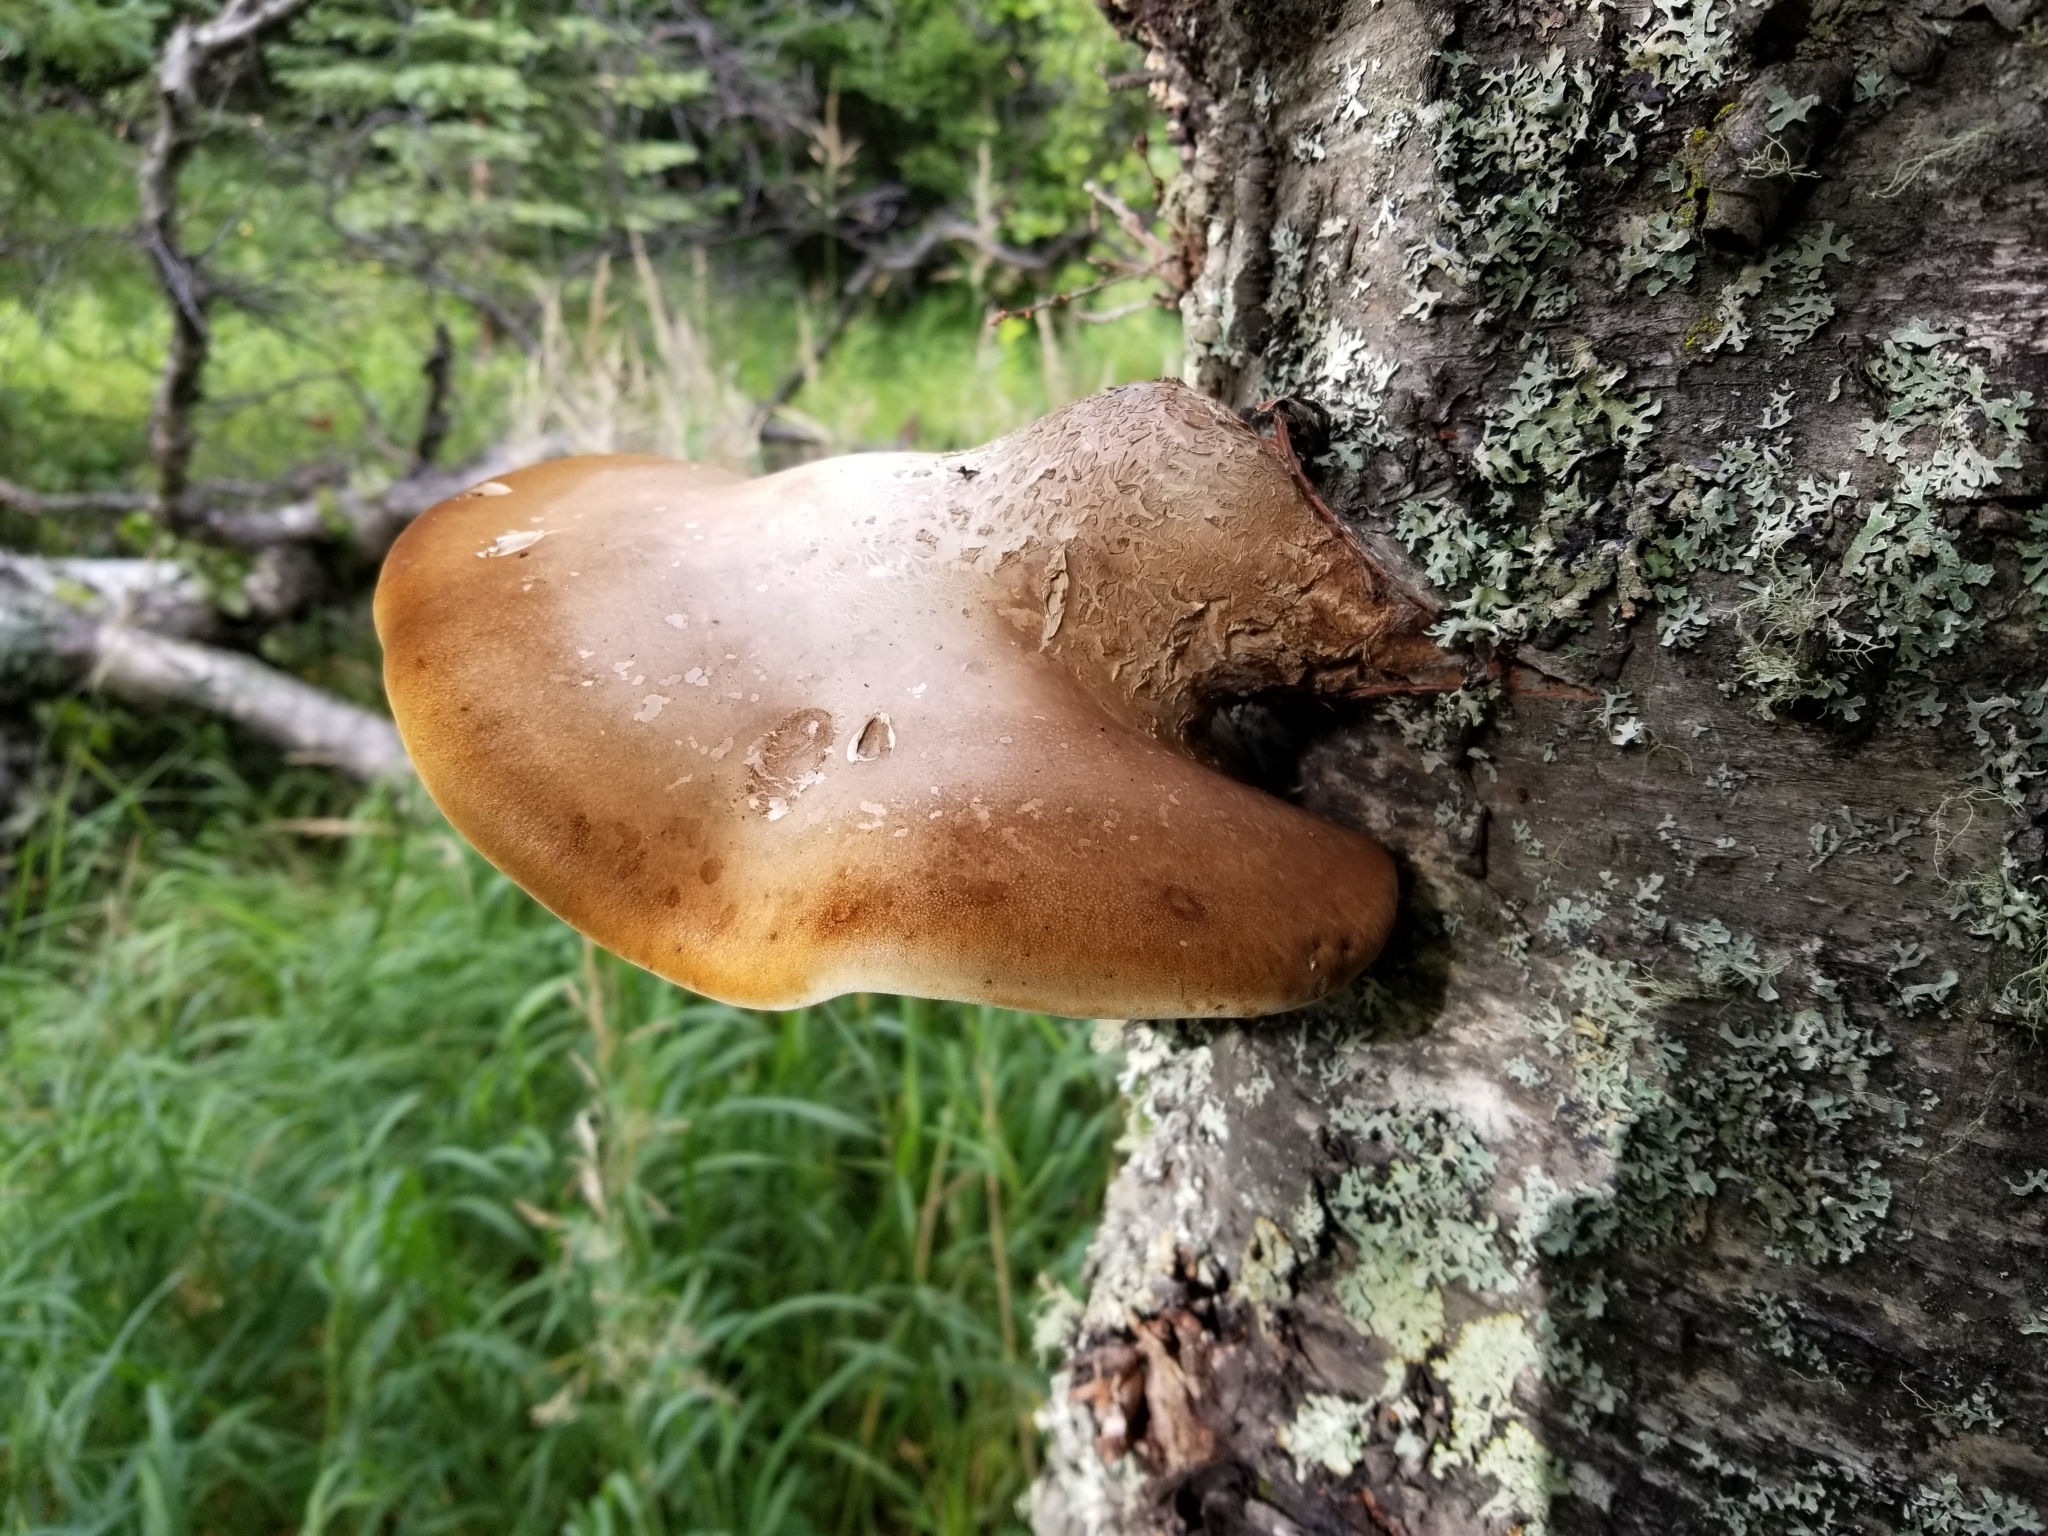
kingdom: Fungi
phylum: Basidiomycota
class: Agaricomycetes
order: Polyporales
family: Fomitopsidaceae
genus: Fomitopsis
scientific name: Fomitopsis betulina
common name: Birch polypore
